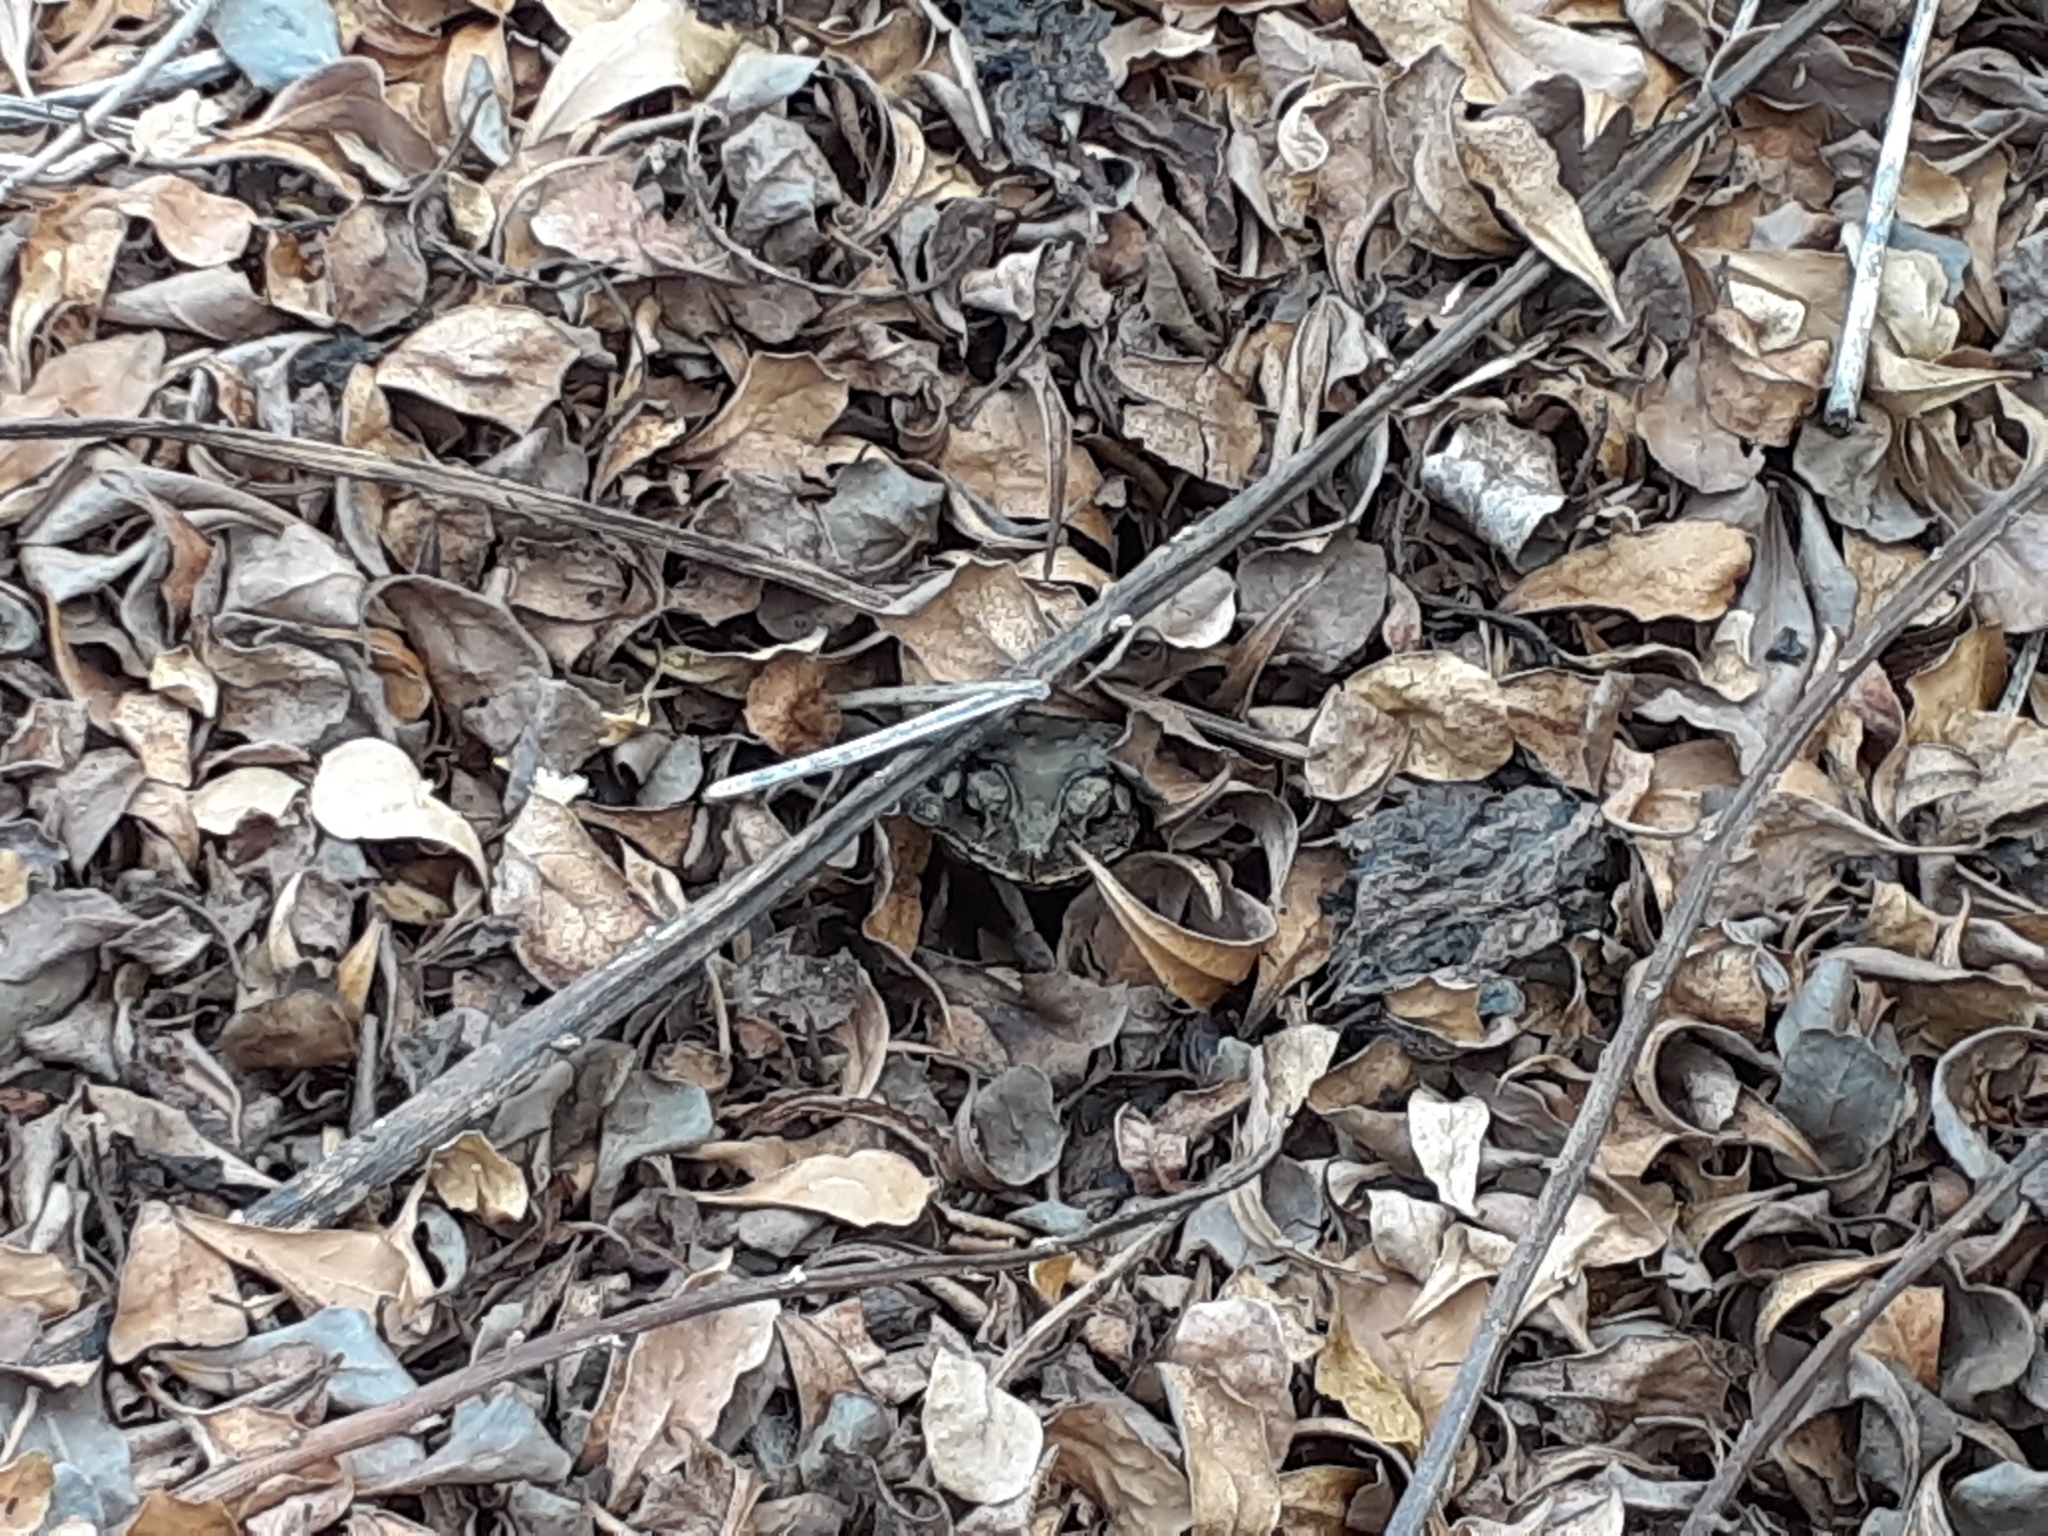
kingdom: Animalia
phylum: Chordata
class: Amphibia
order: Anura
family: Bufonidae
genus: Duttaphrynus
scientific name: Duttaphrynus melanostictus
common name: Common sunda toad
